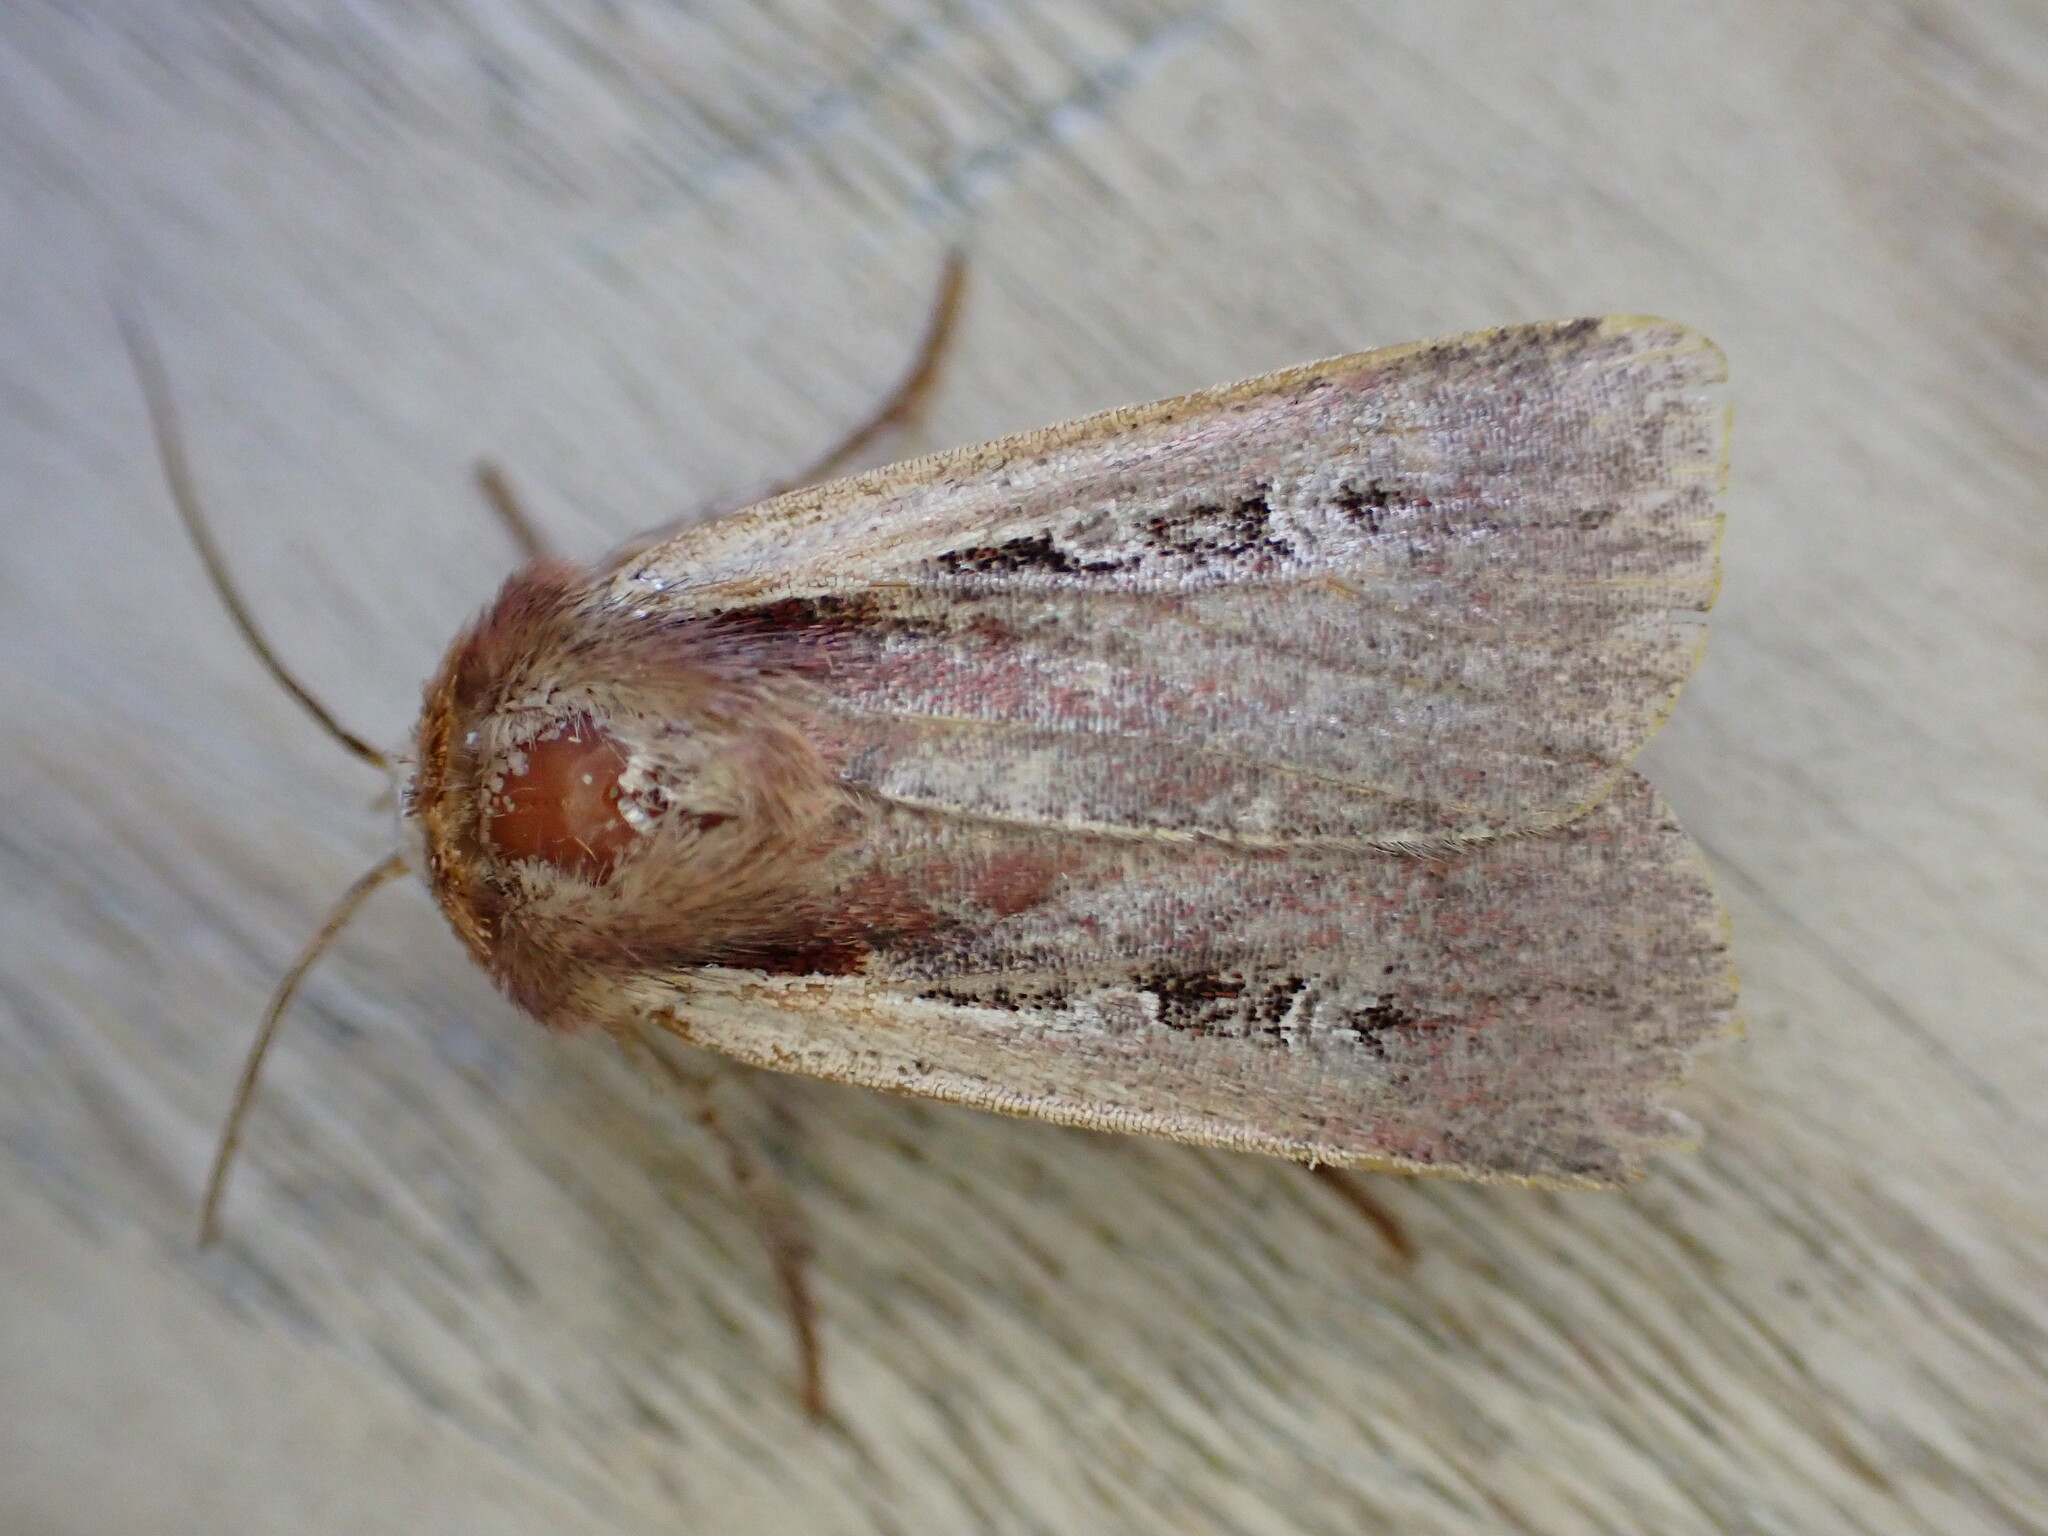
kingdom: Animalia
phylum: Arthropoda
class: Insecta
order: Lepidoptera
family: Noctuidae
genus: Ochropleura
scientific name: Ochropleura plecta
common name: Flame shoulder
